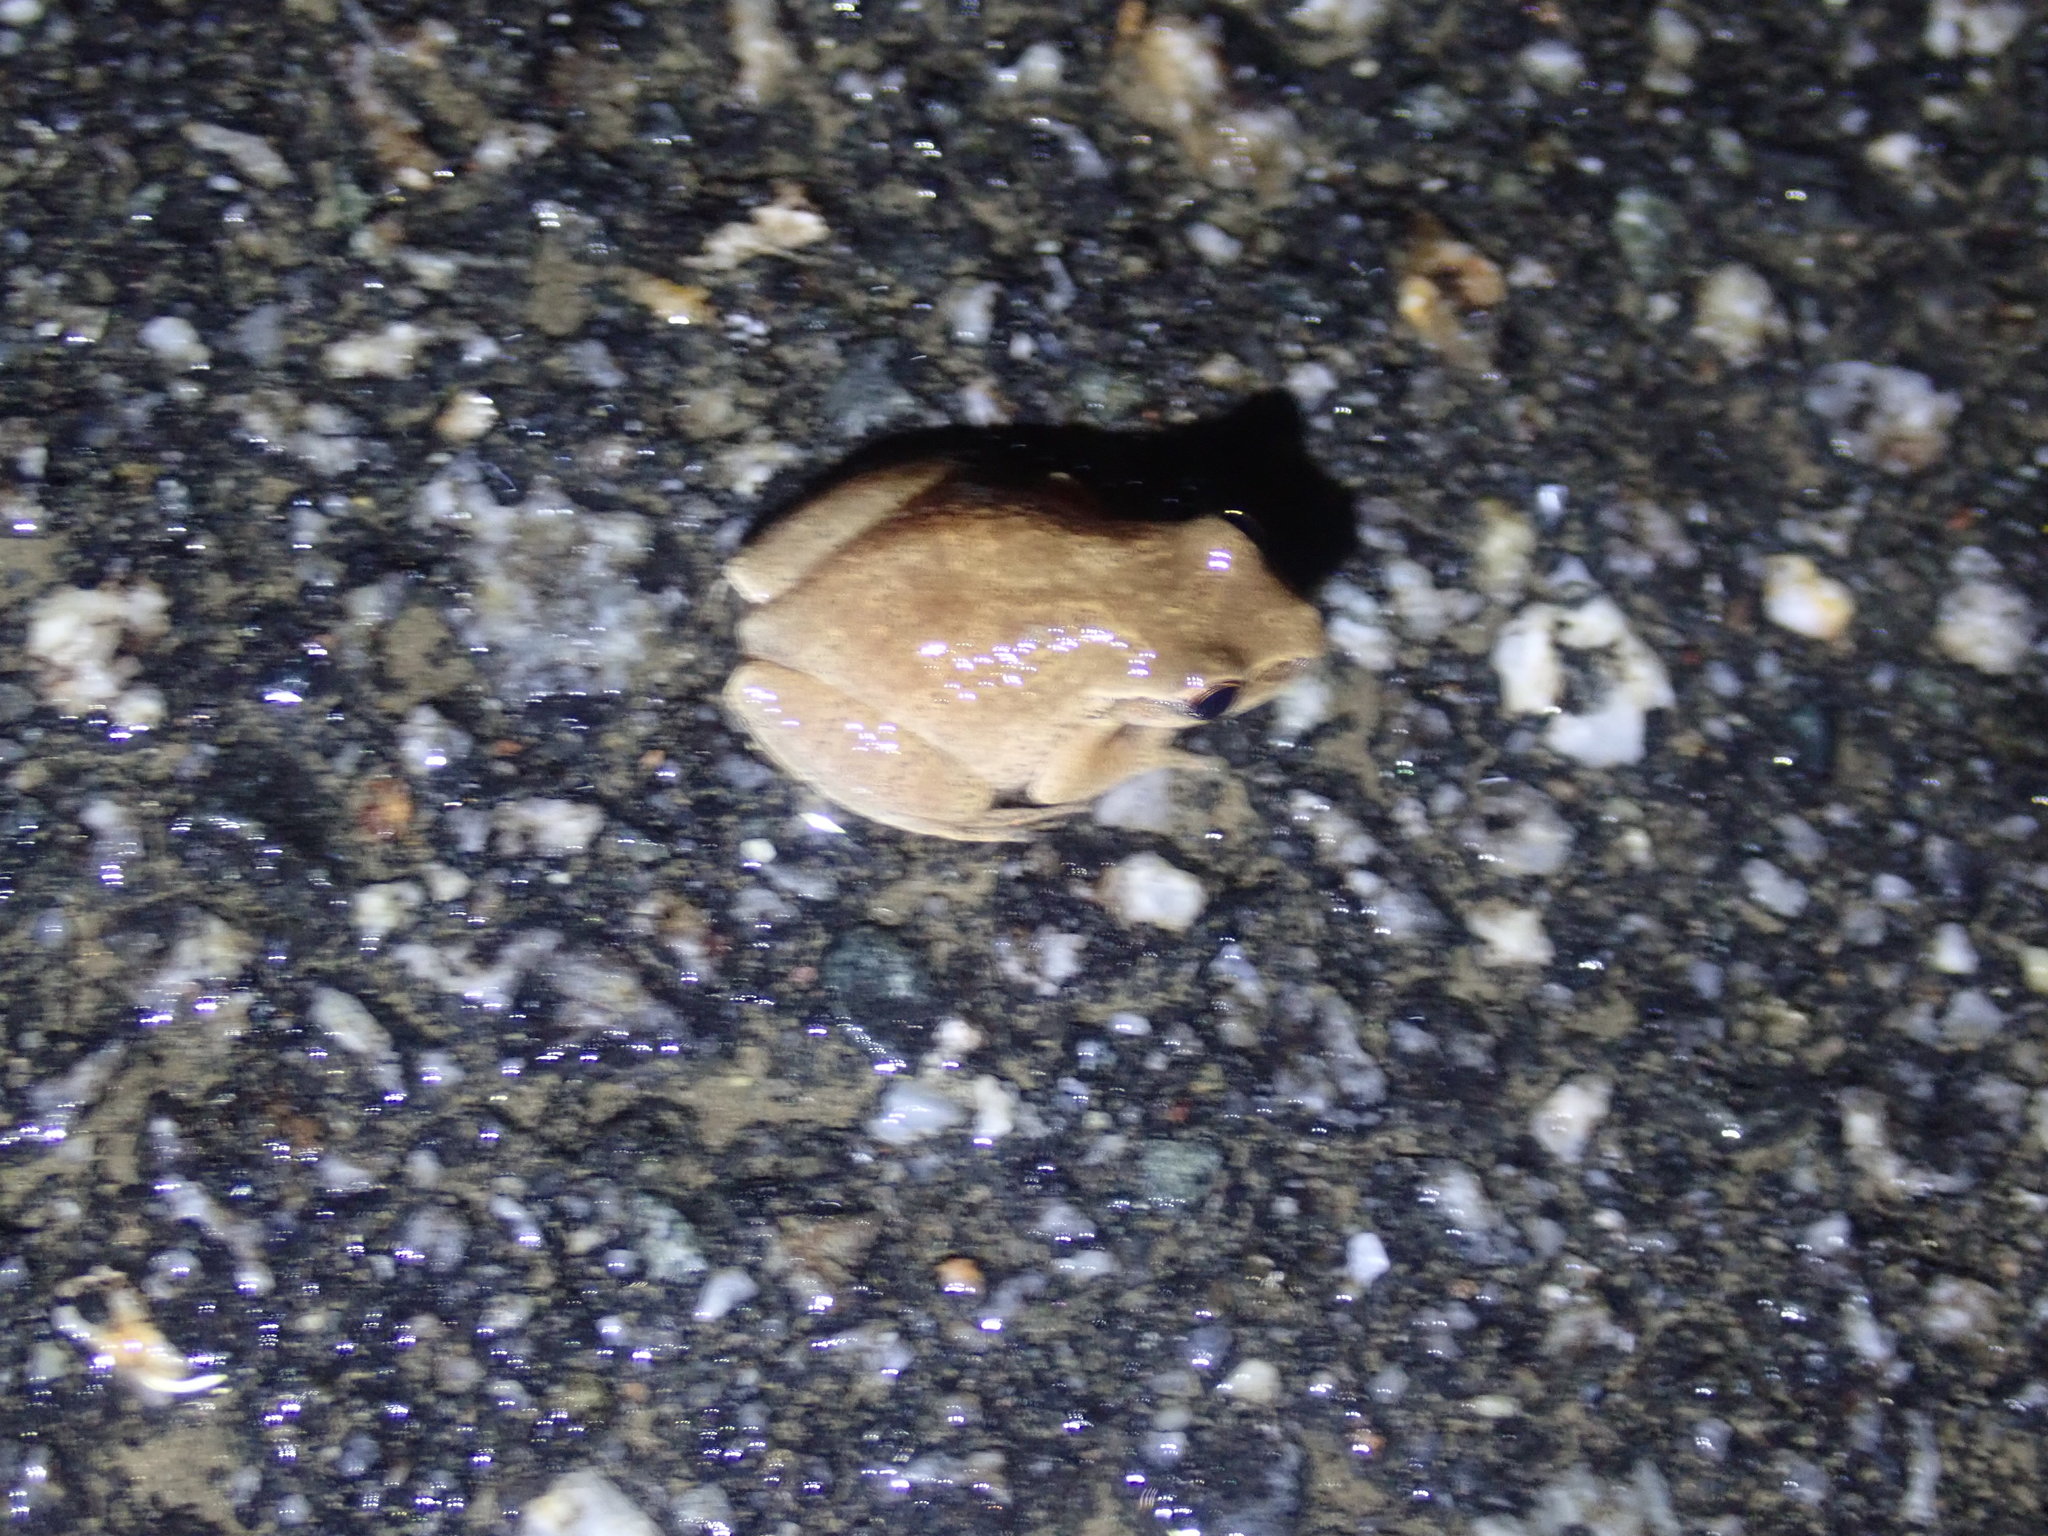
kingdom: Animalia
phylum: Chordata
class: Amphibia
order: Anura
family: Hylidae
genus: Pseudacris
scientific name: Pseudacris crucifer
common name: Spring peeper
